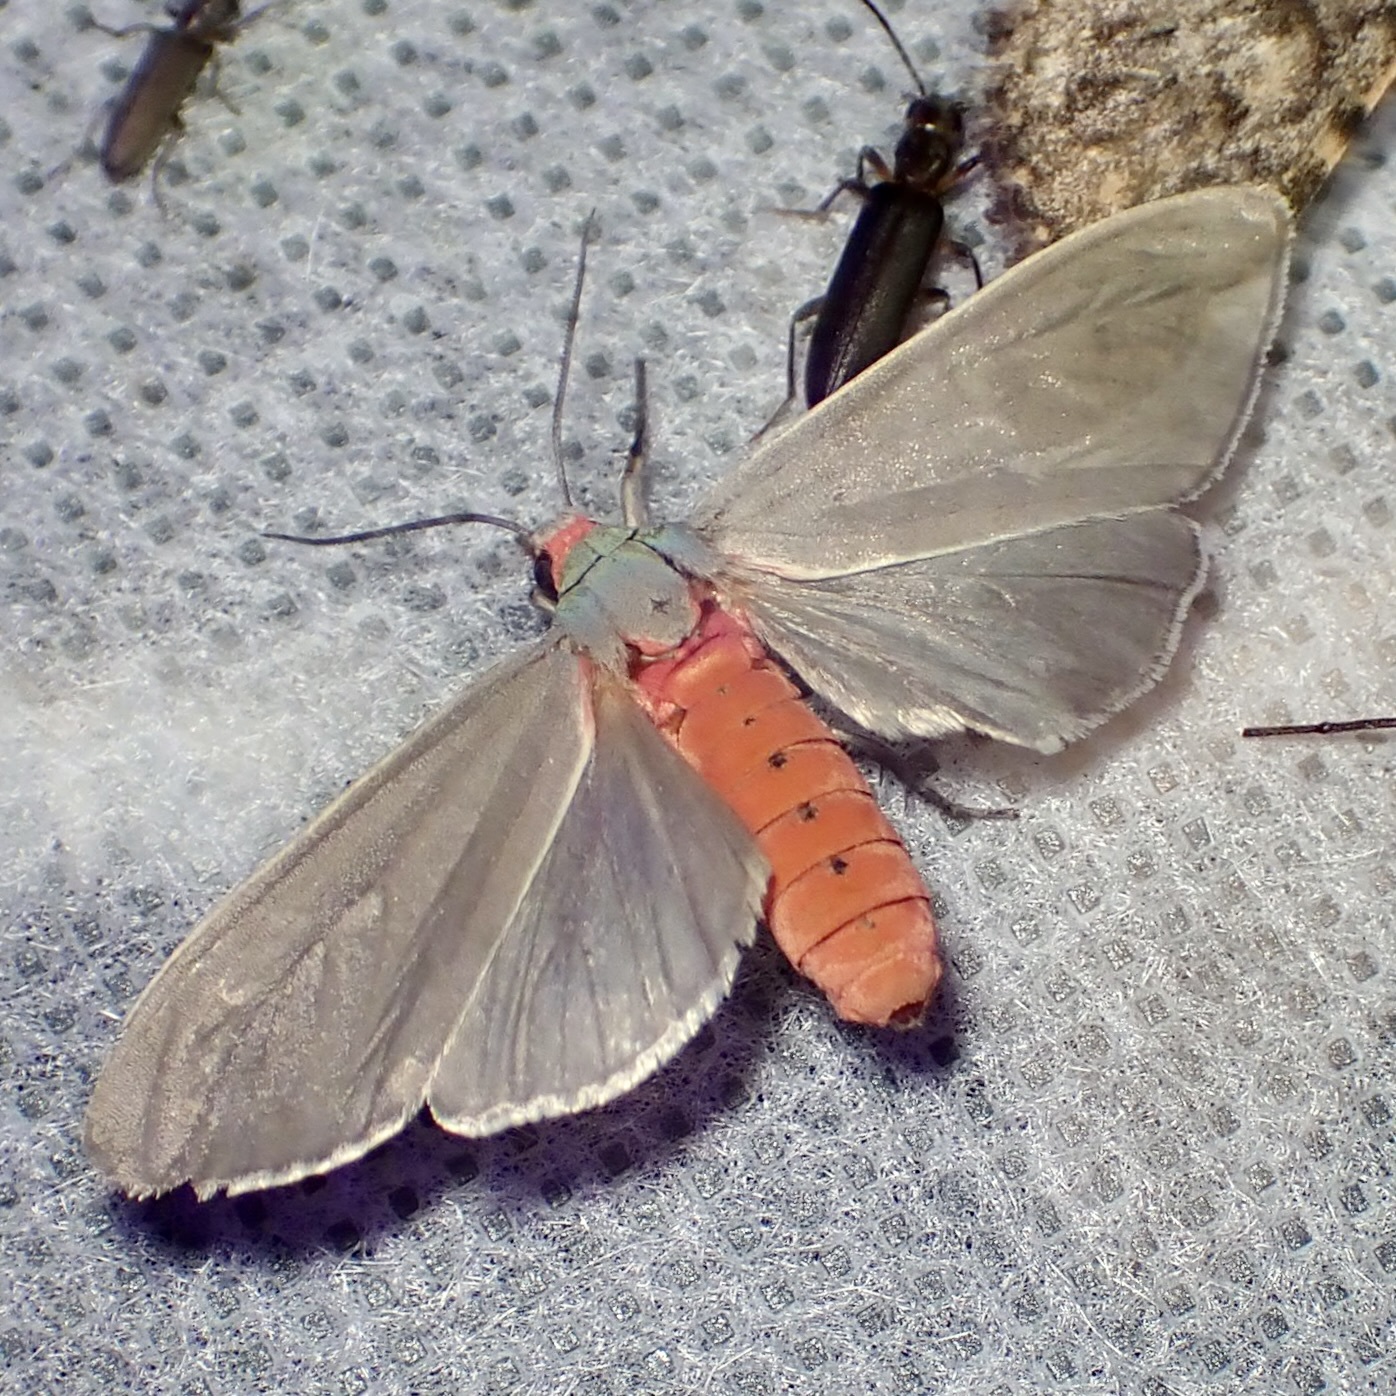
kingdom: Animalia
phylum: Arthropoda
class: Insecta
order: Lepidoptera
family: Erebidae
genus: Pygarctia
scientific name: Pygarctia murina
